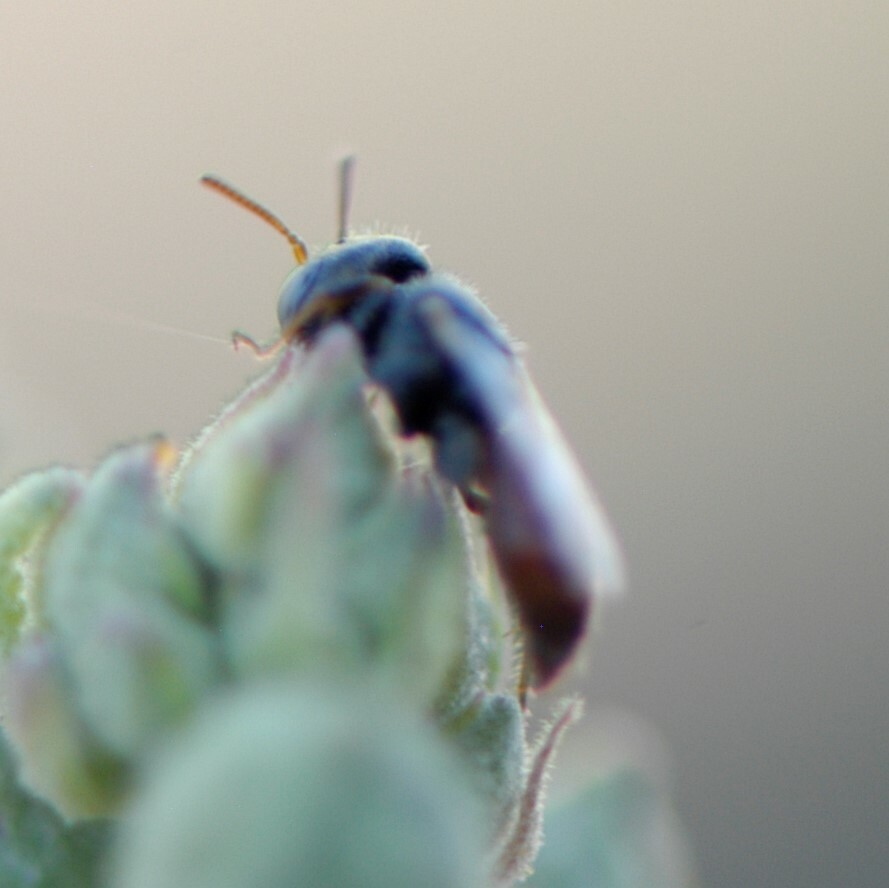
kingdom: Animalia
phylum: Arthropoda
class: Insecta
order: Hymenoptera
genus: Macroteropsis
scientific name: Macroteropsis
